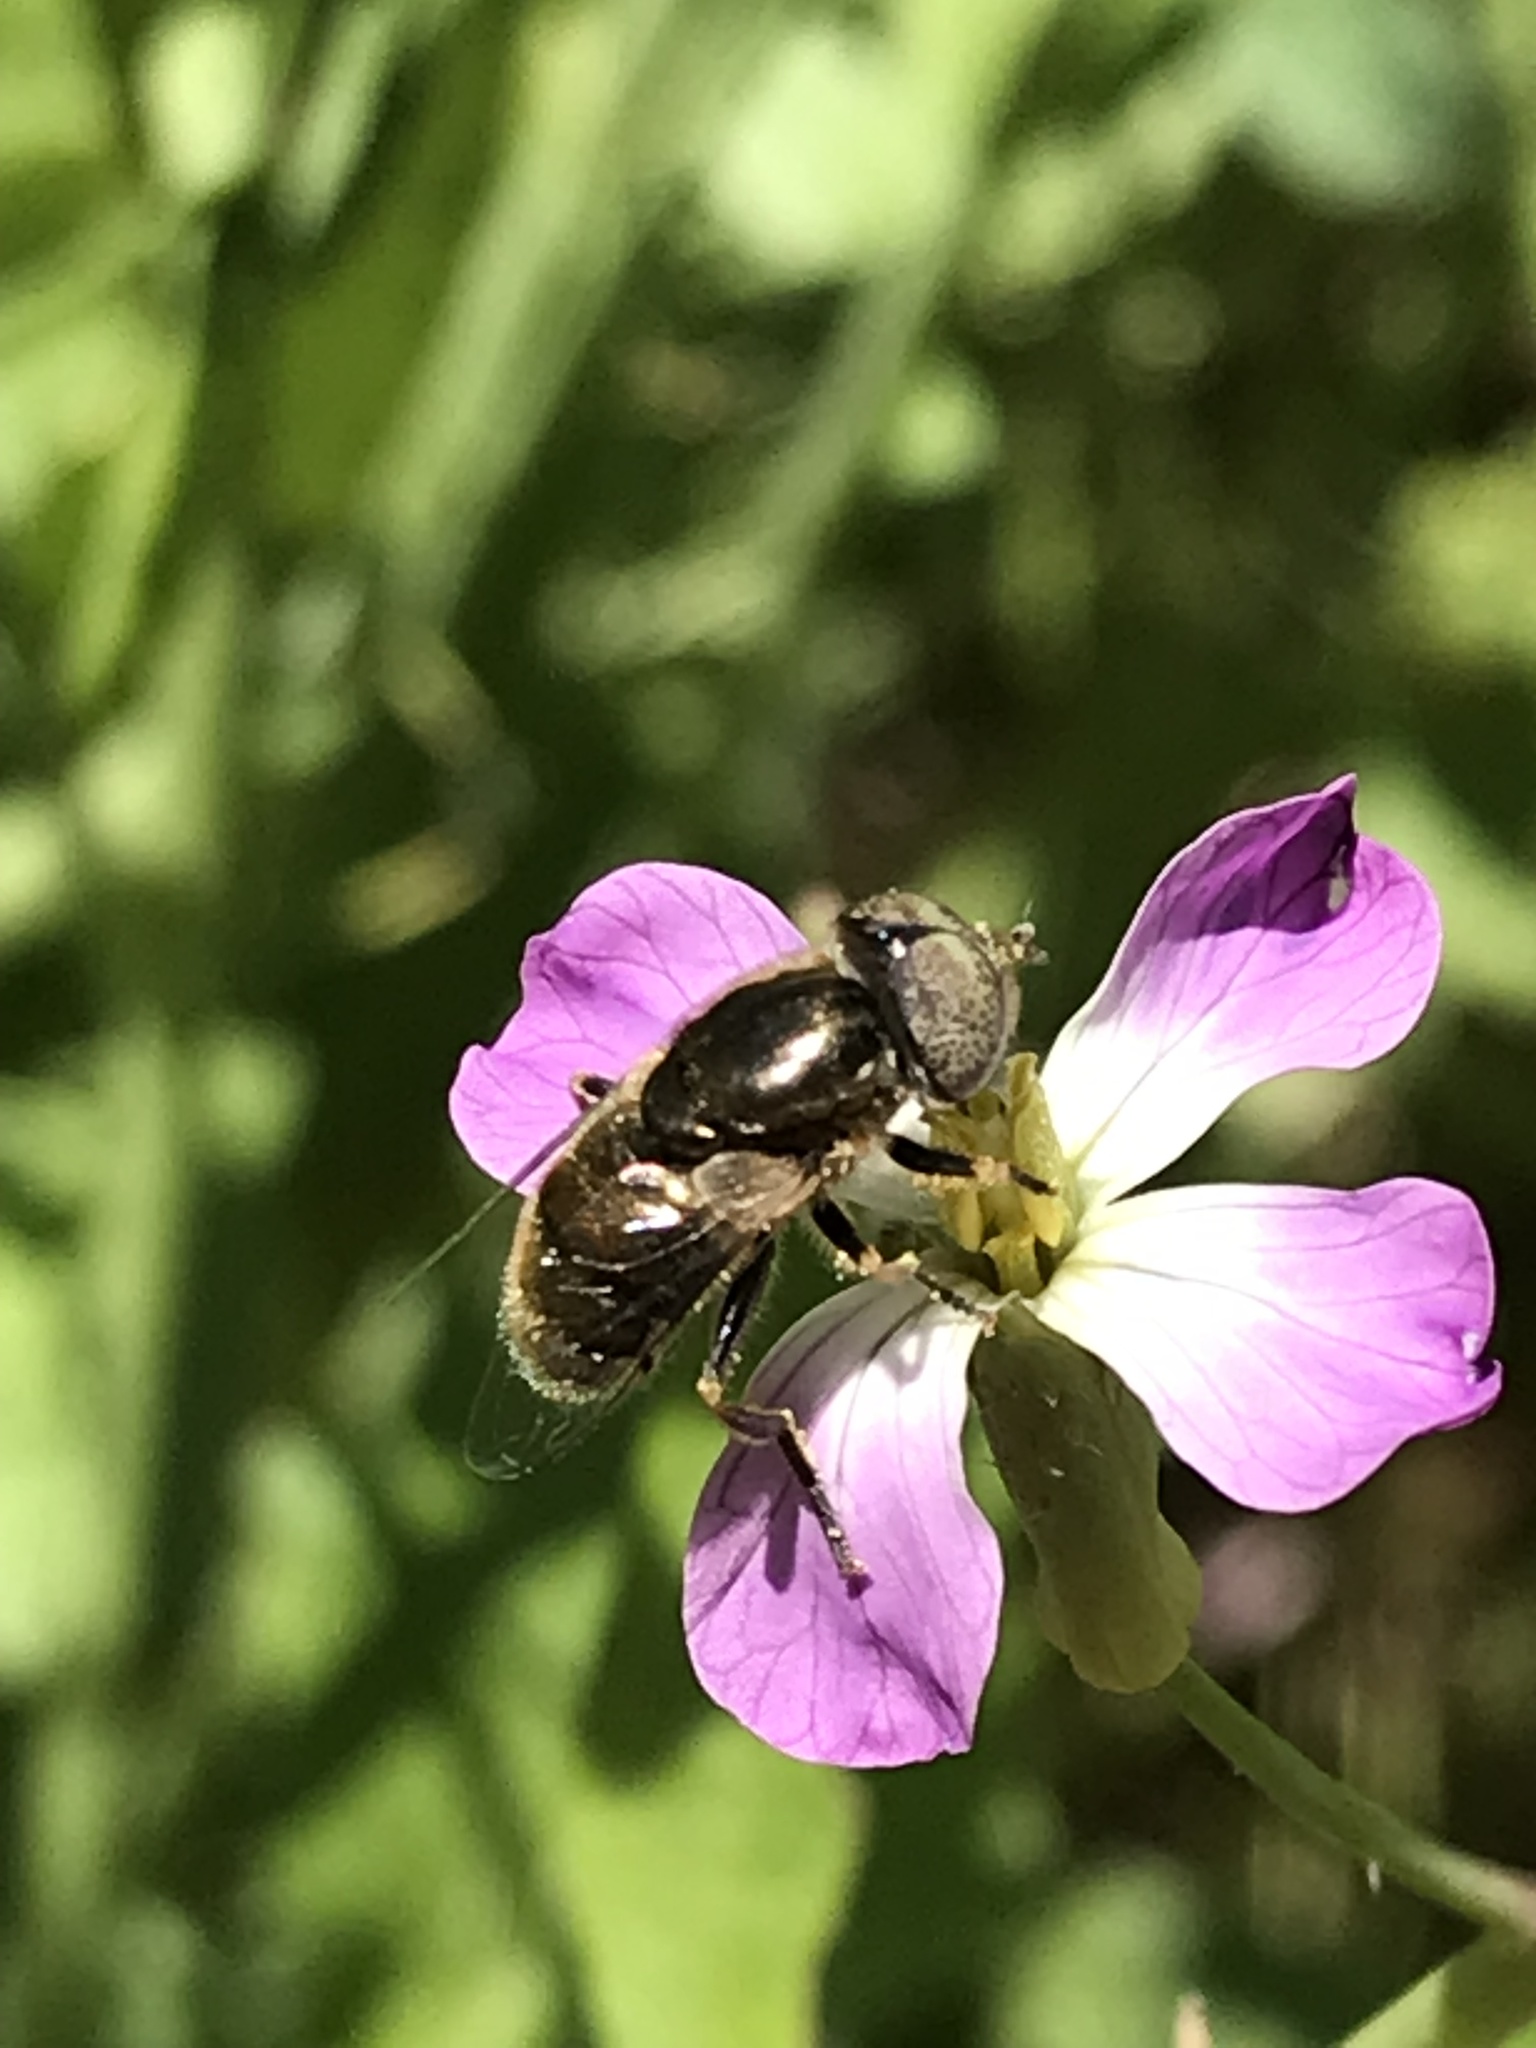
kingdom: Animalia
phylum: Arthropoda
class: Insecta
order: Diptera
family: Syrphidae
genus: Eristalinus
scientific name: Eristalinus aeneus
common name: Syrphid fly
